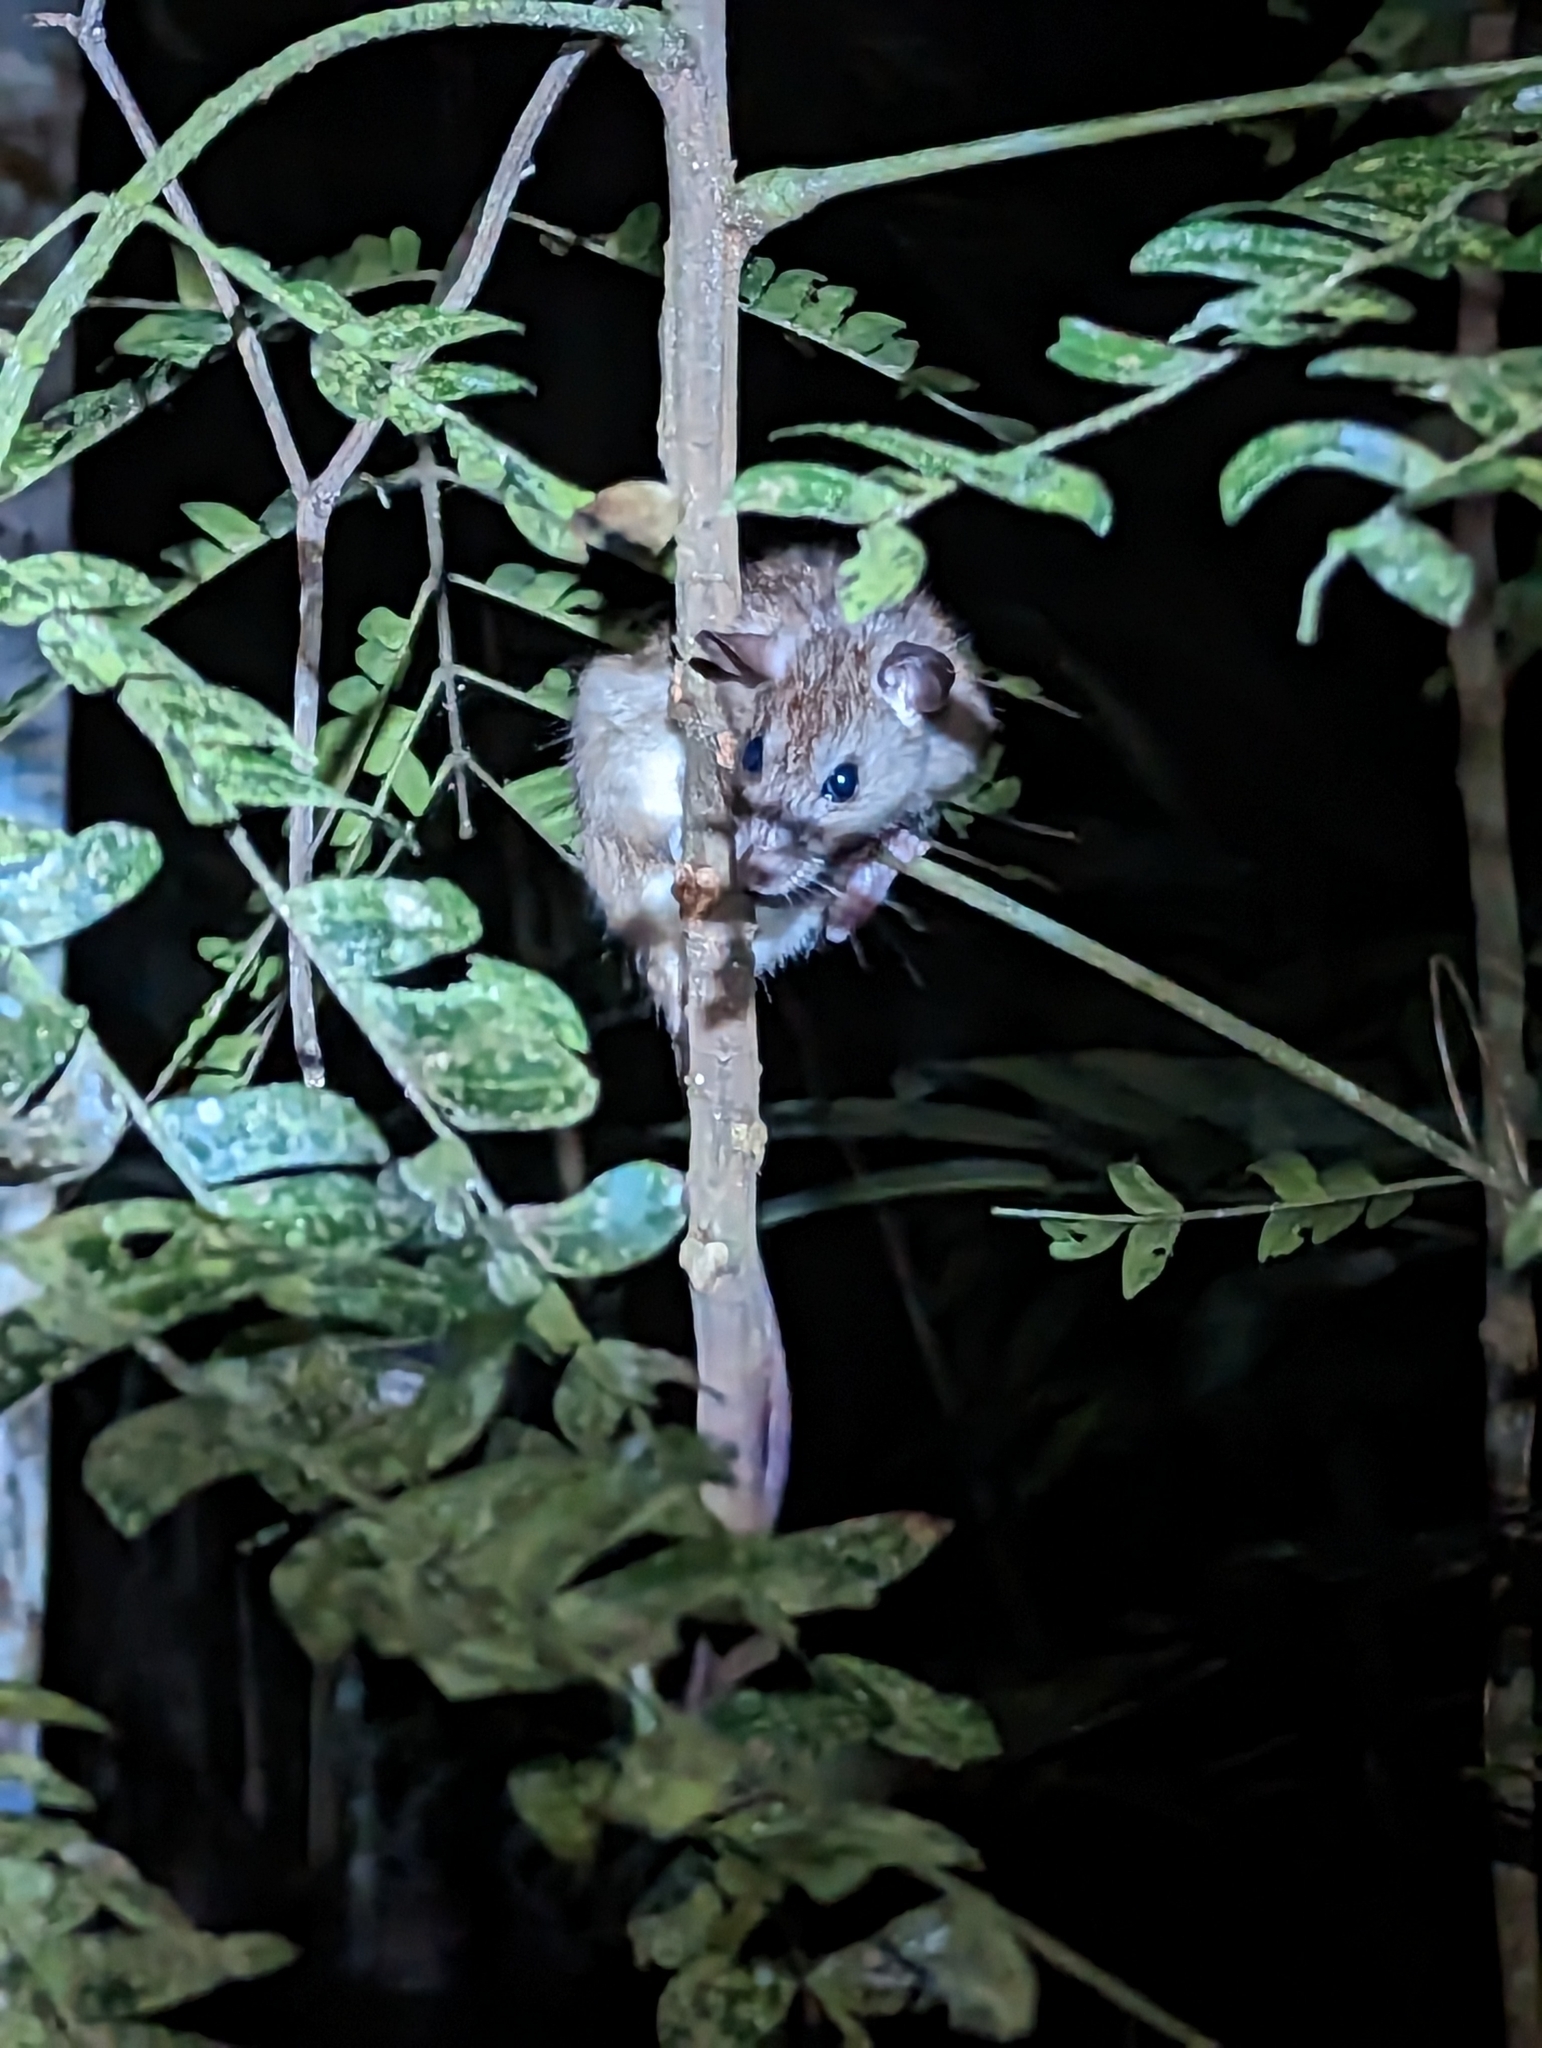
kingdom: Animalia
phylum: Chordata
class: Mammalia
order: Rodentia
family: Muridae
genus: Rattus
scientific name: Rattus rattus
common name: Black rat
